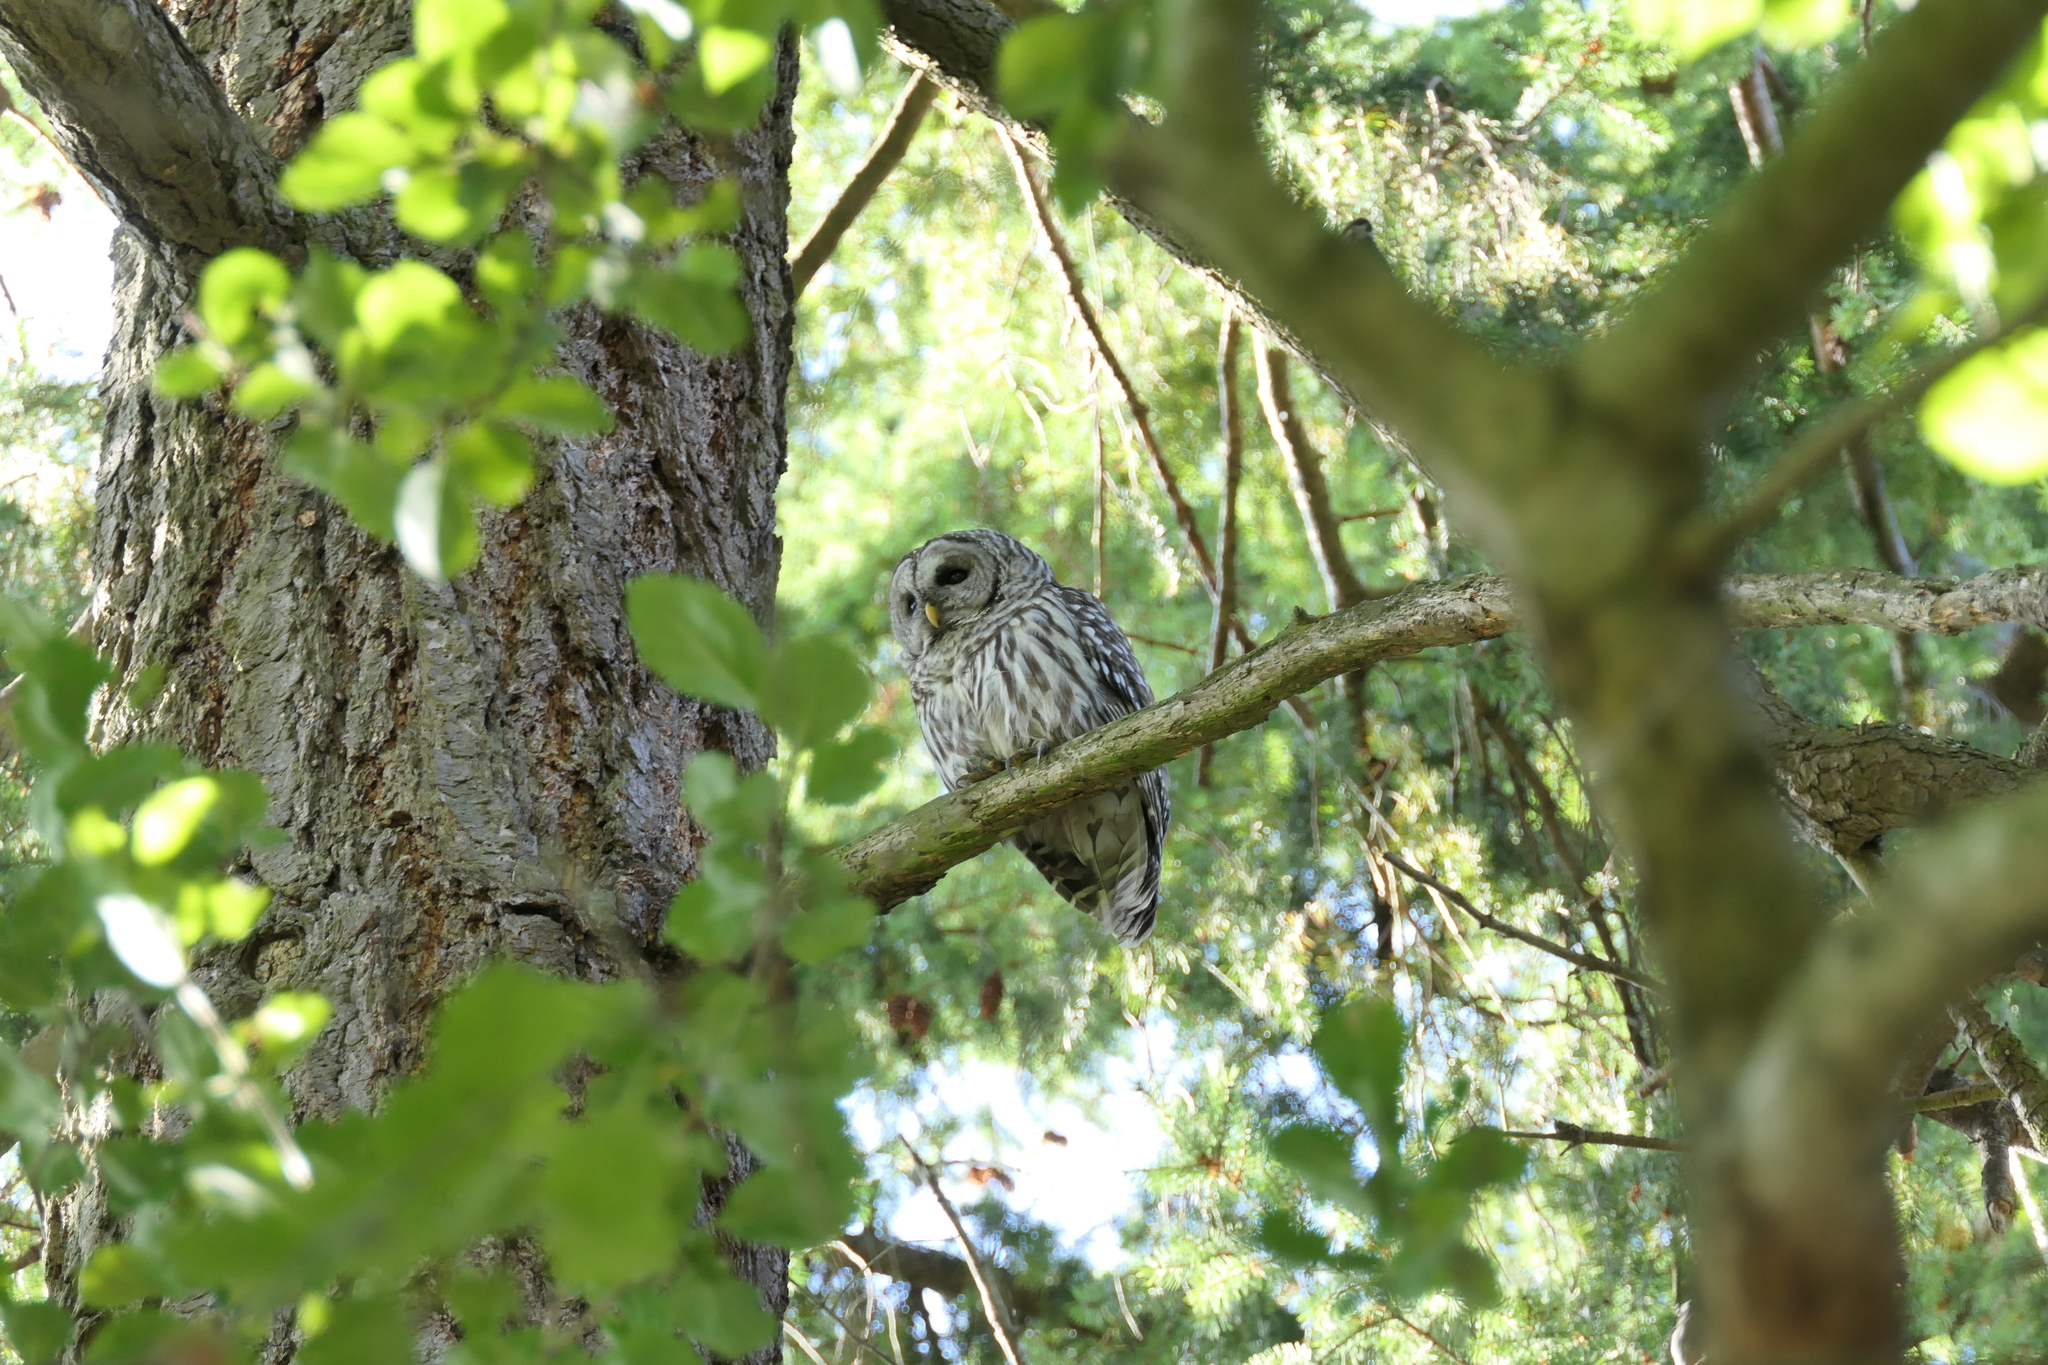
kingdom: Animalia
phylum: Chordata
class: Aves
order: Strigiformes
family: Strigidae
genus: Strix
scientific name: Strix varia
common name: Barred owl
